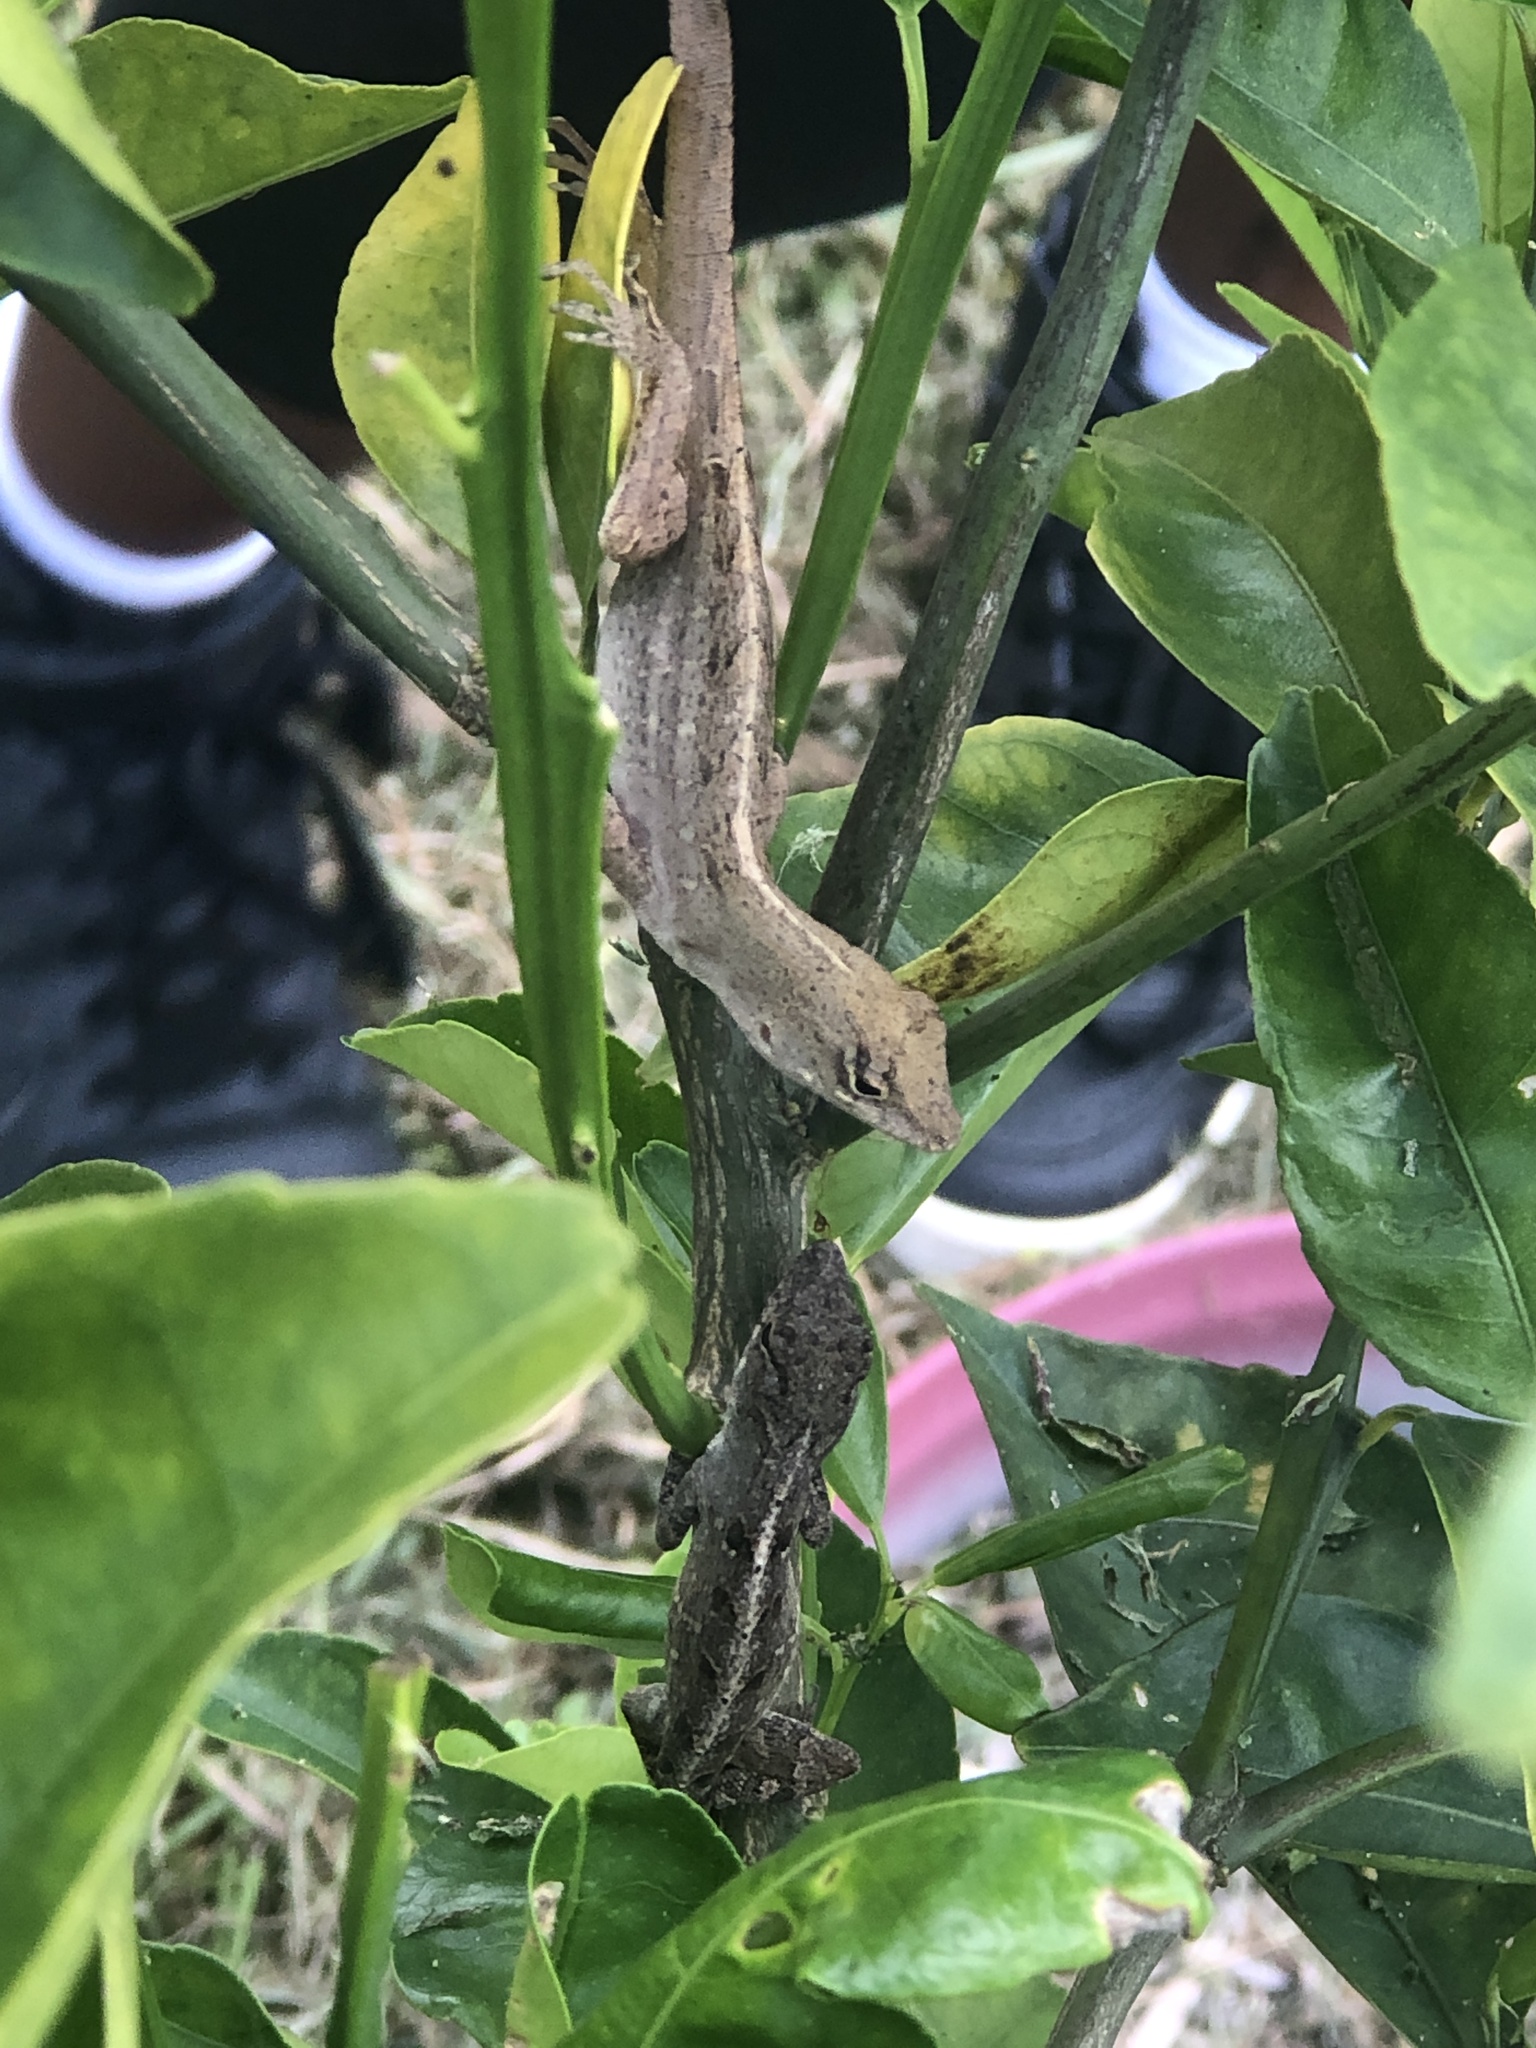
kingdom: Animalia
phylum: Chordata
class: Squamata
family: Dactyloidae
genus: Anolis
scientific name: Anolis sagrei
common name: Brown anole
